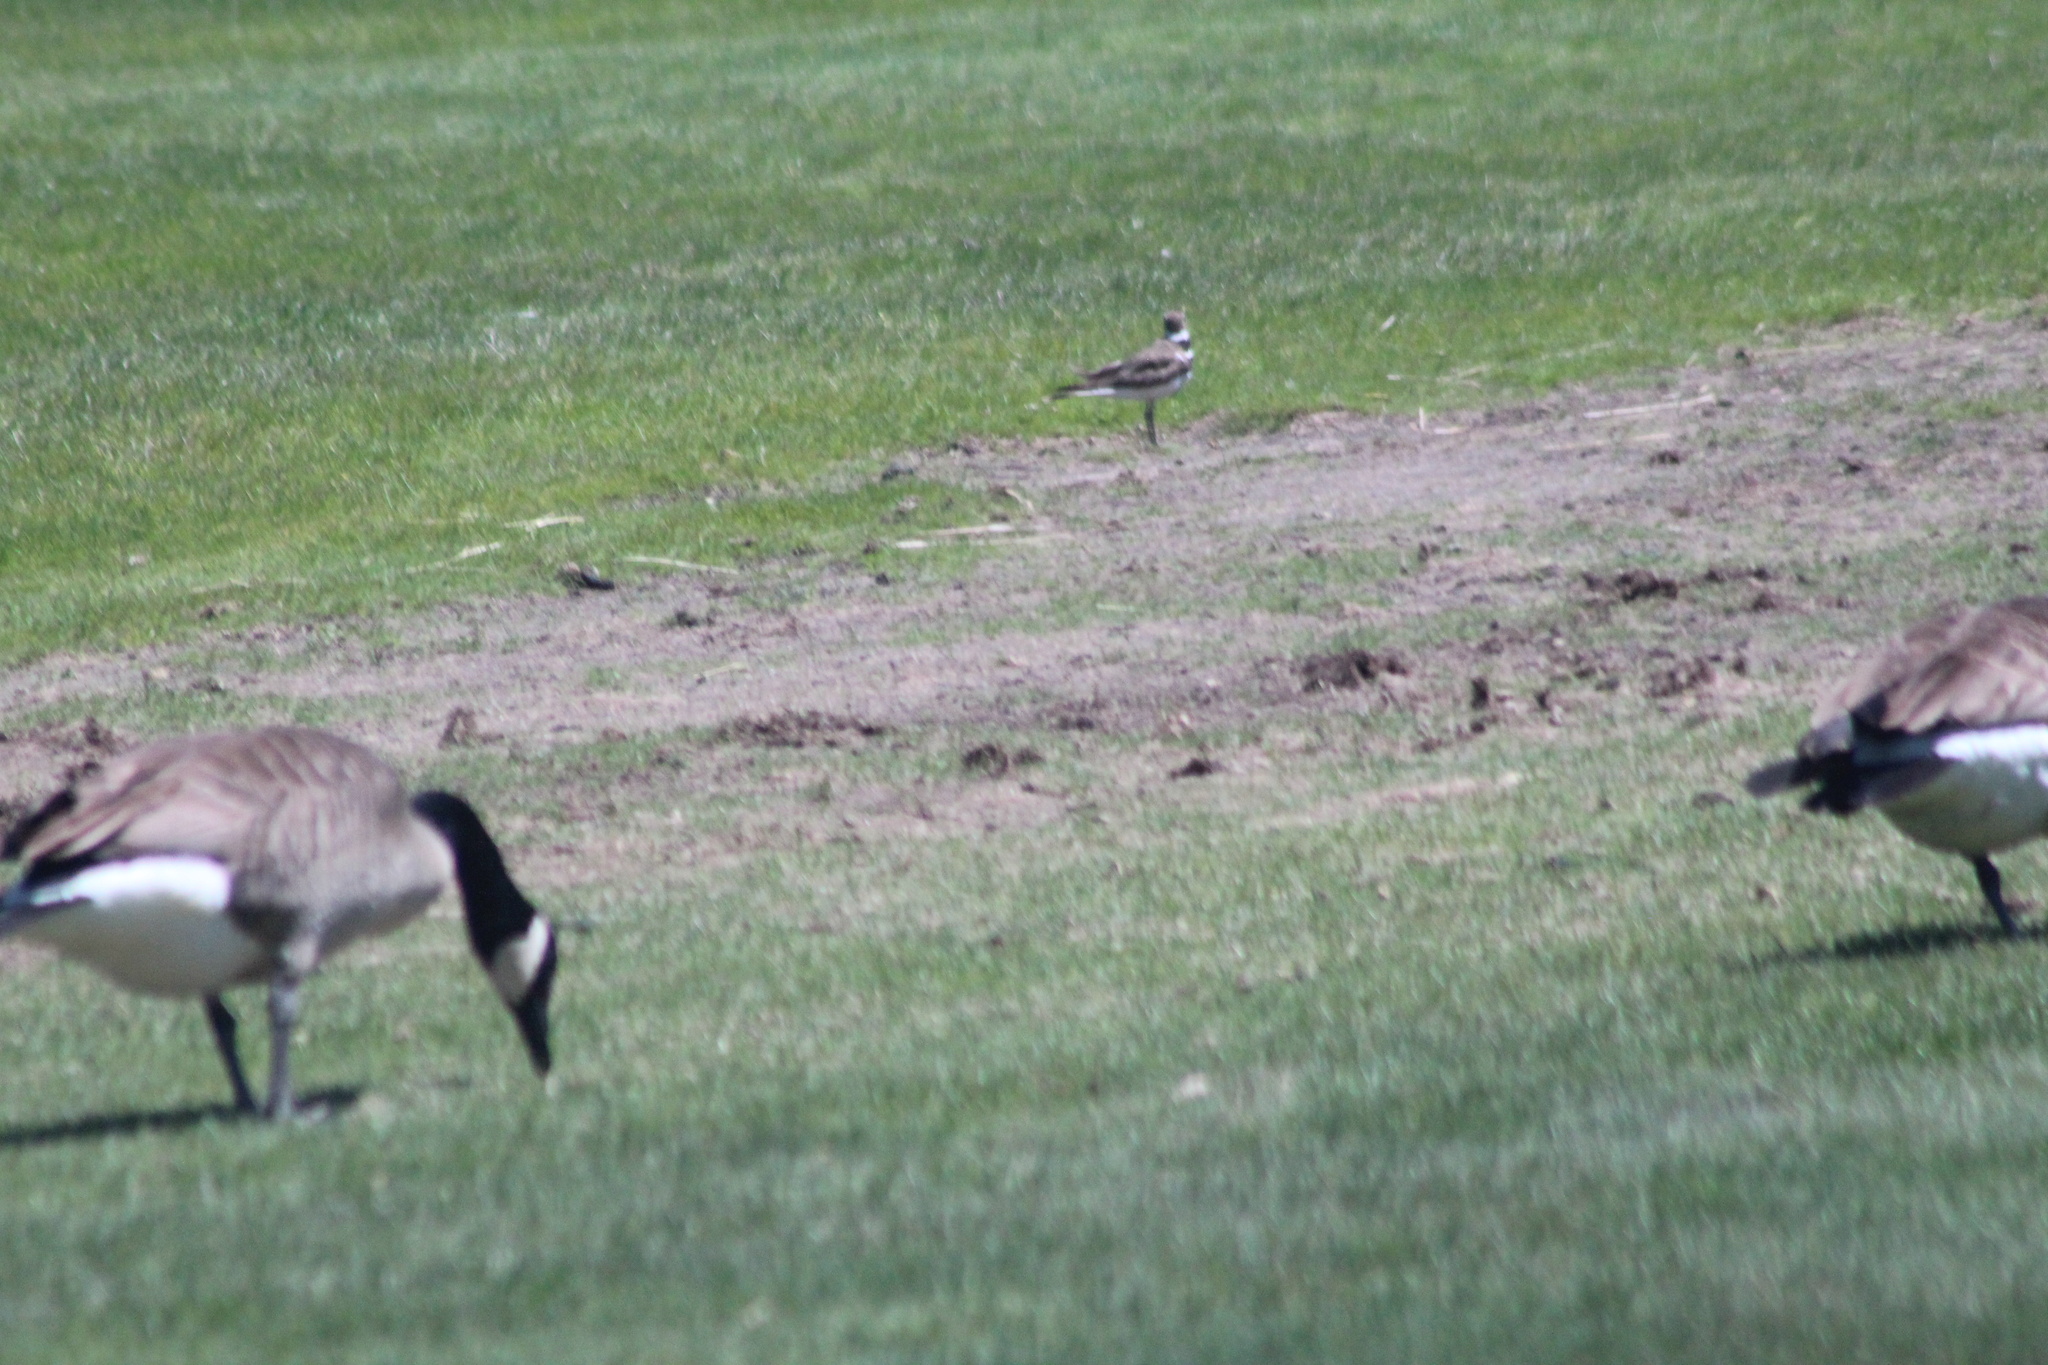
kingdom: Animalia
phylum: Chordata
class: Aves
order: Charadriiformes
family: Charadriidae
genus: Charadrius
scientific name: Charadrius vociferus
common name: Killdeer
